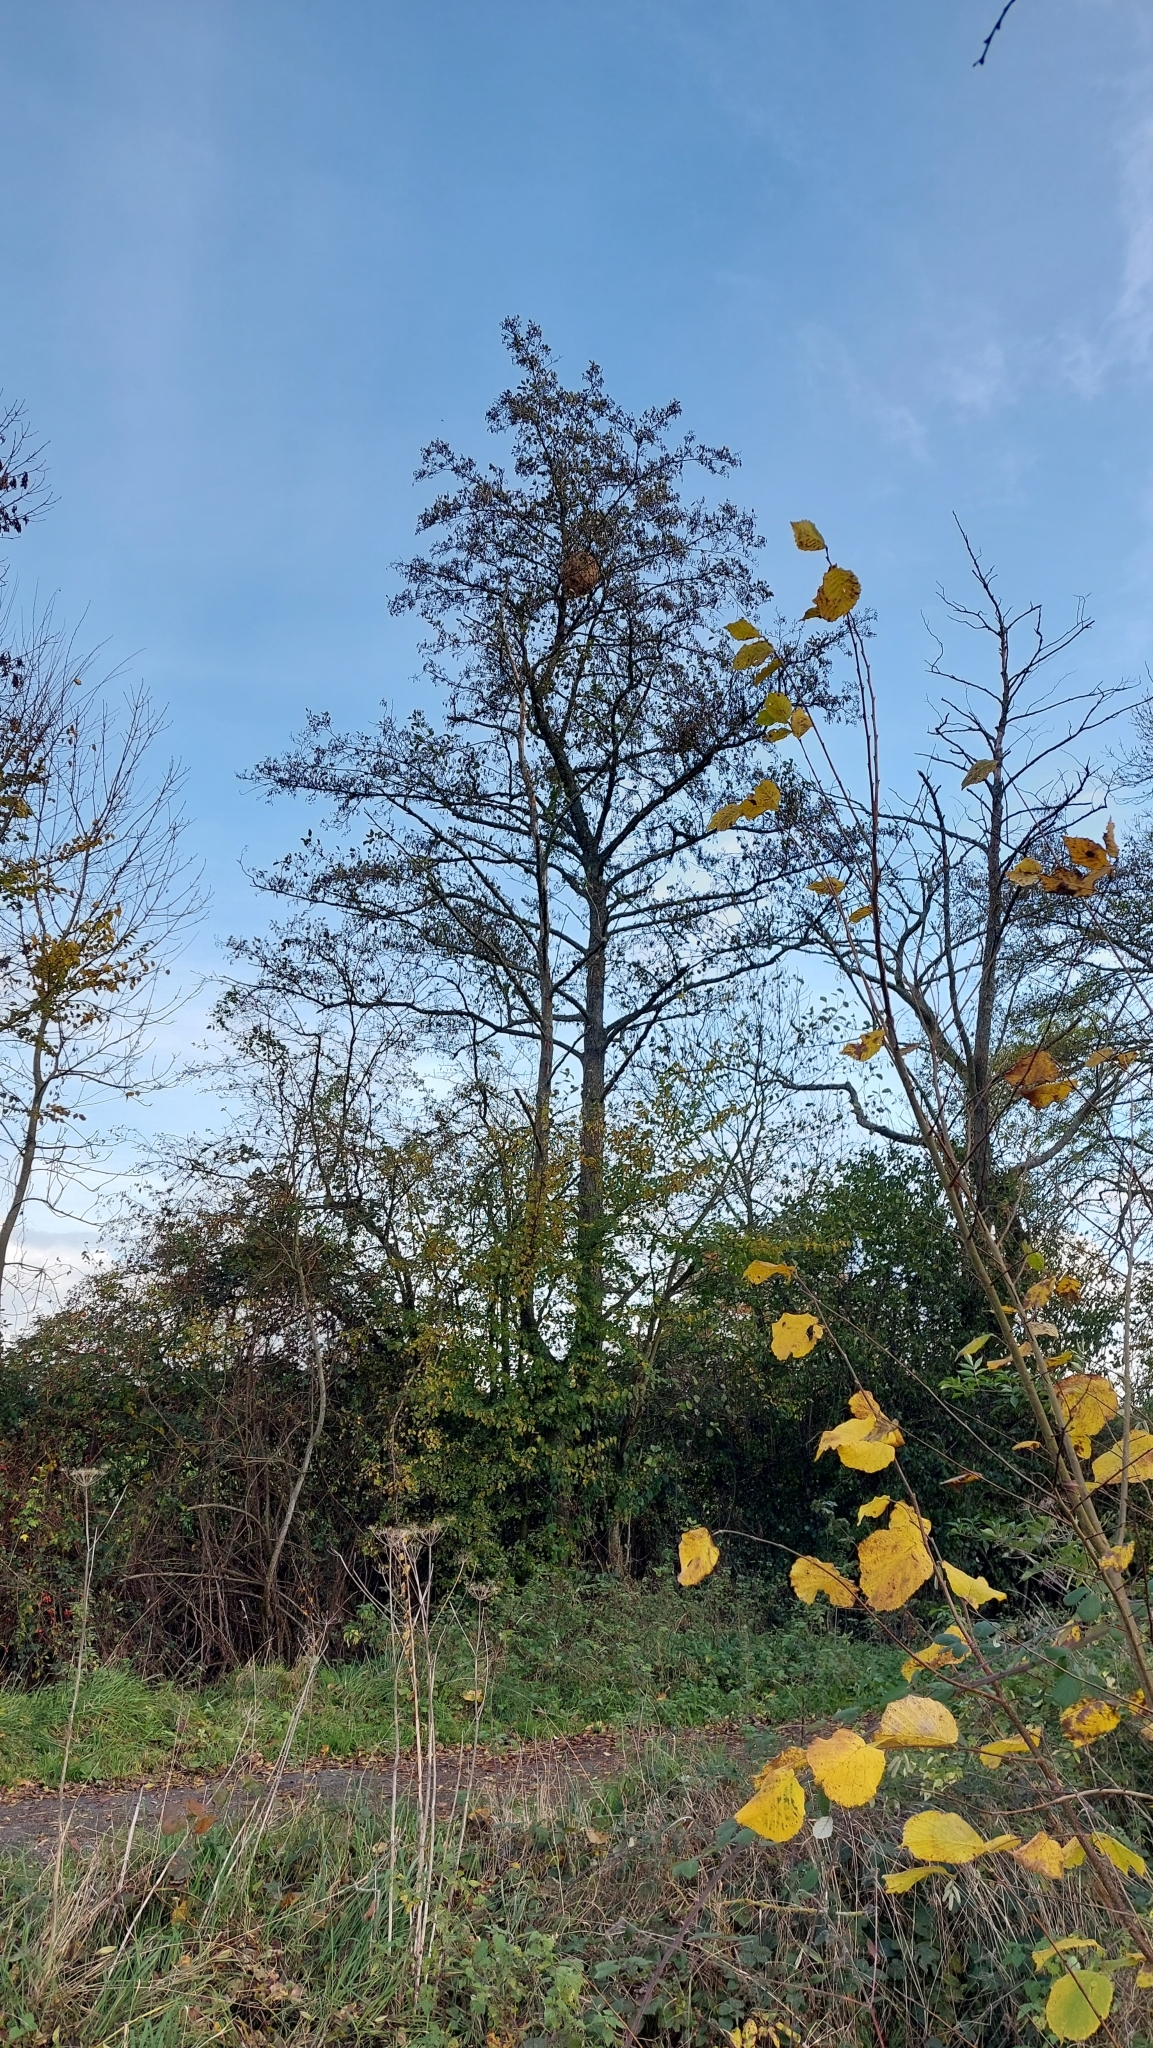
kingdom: Animalia
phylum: Arthropoda
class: Insecta
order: Hymenoptera
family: Vespidae
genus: Vespa
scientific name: Vespa velutina
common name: Asian hornet
